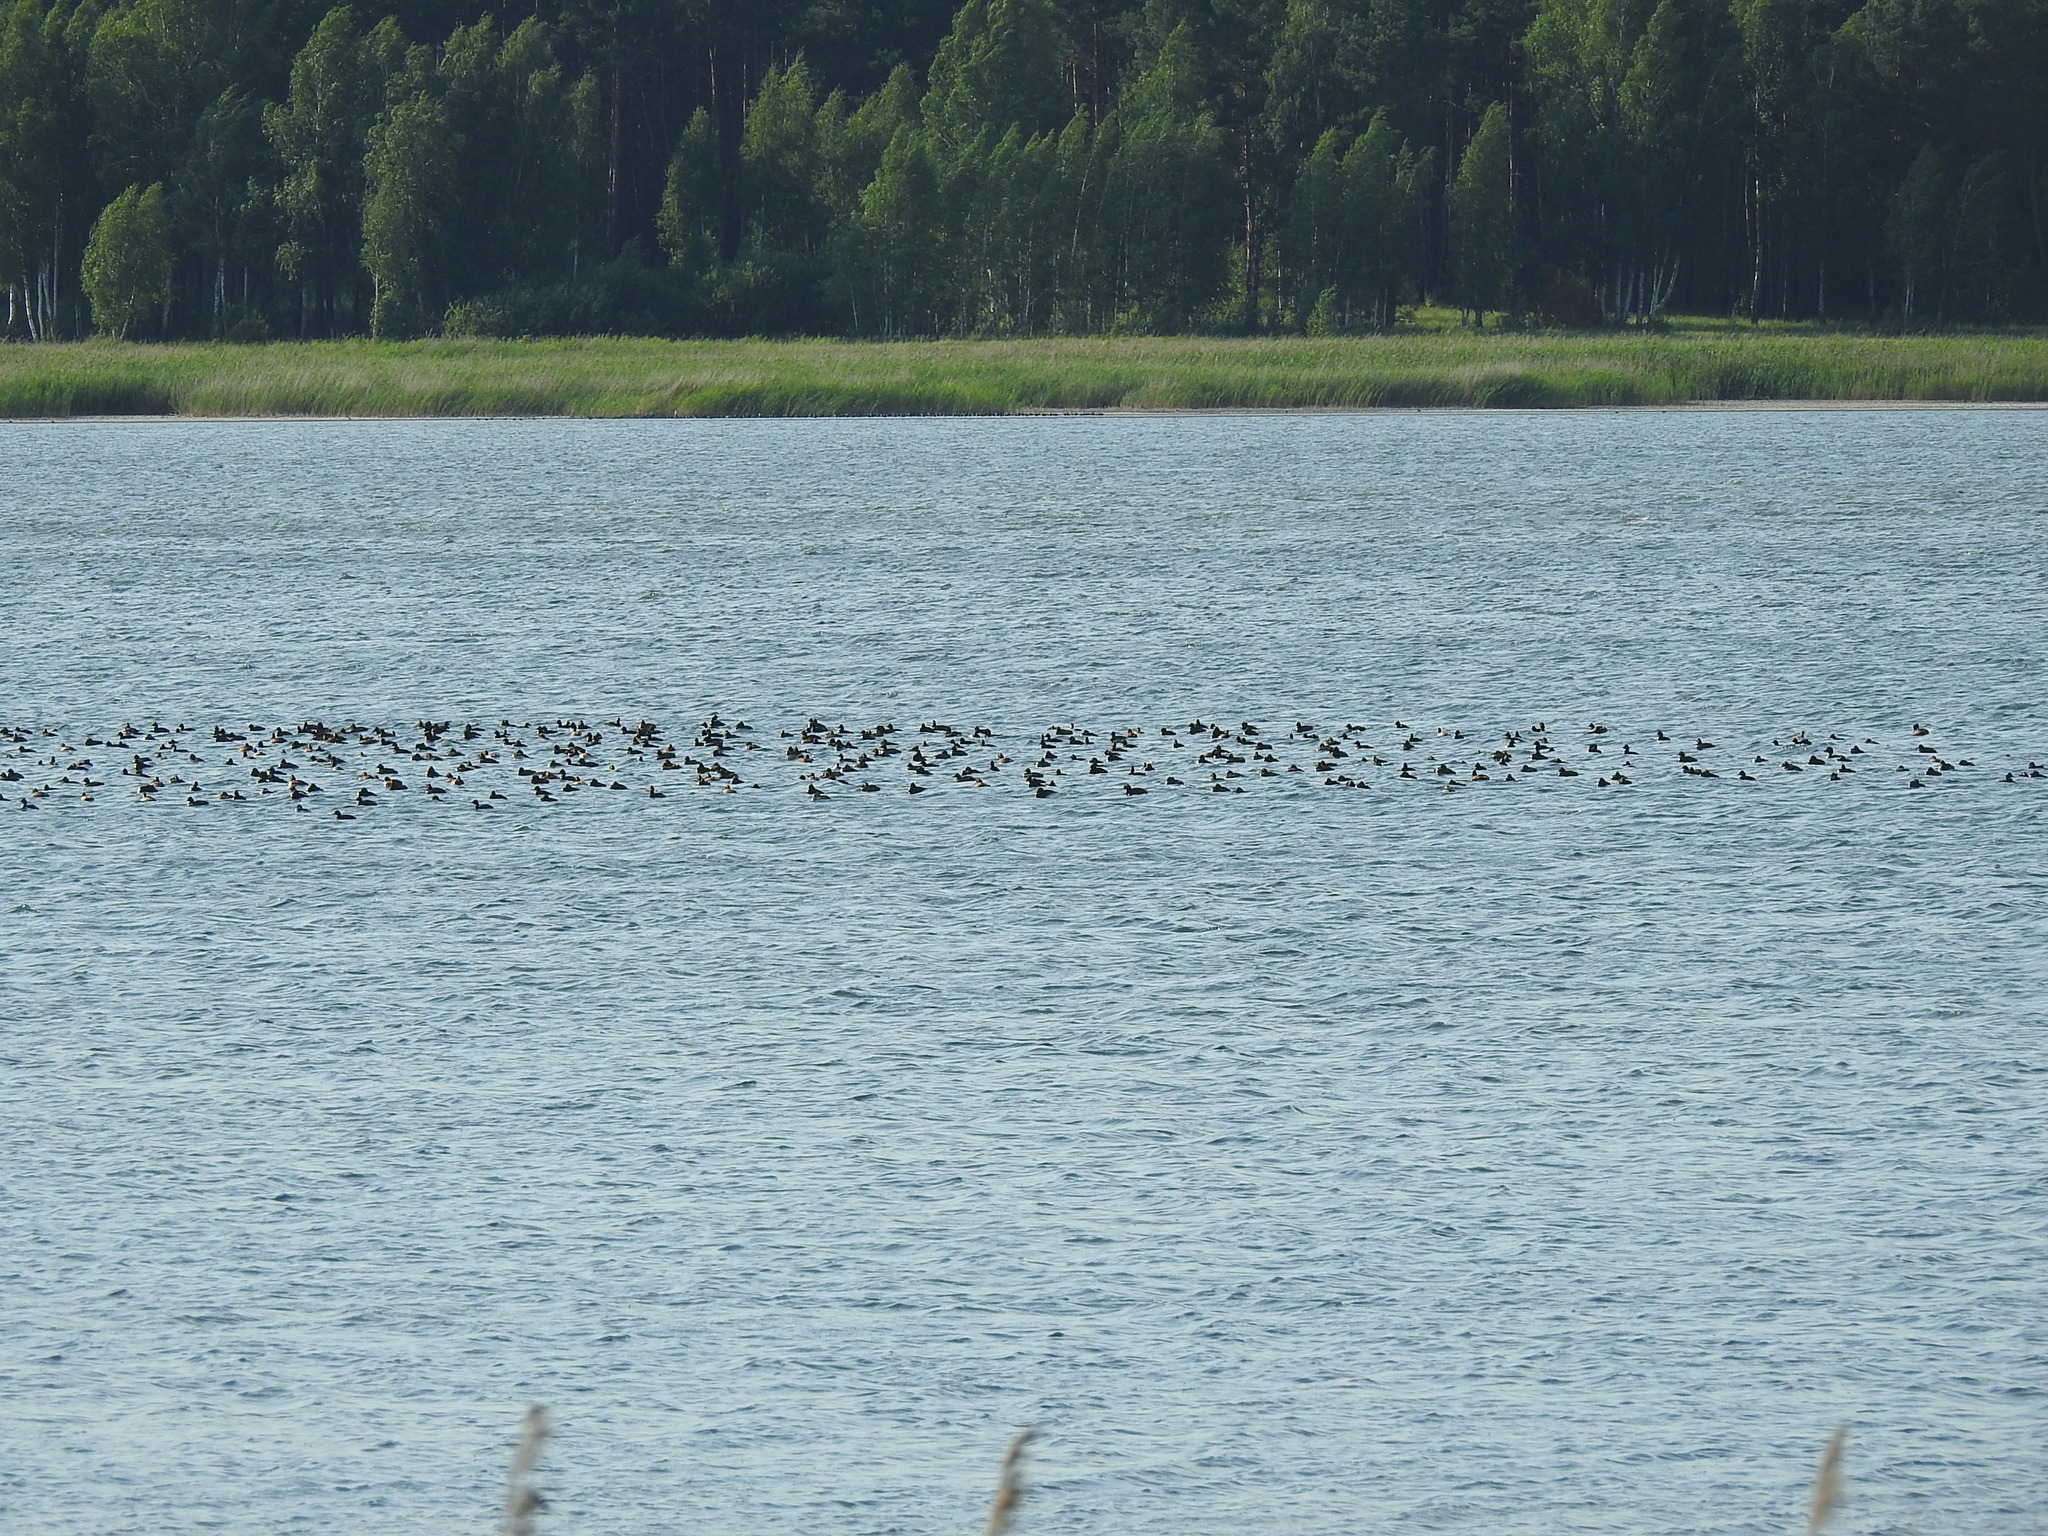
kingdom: Animalia
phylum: Chordata
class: Aves
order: Podicipediformes
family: Podicipedidae
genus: Podiceps
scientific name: Podiceps nigricollis
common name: Black-necked grebe
